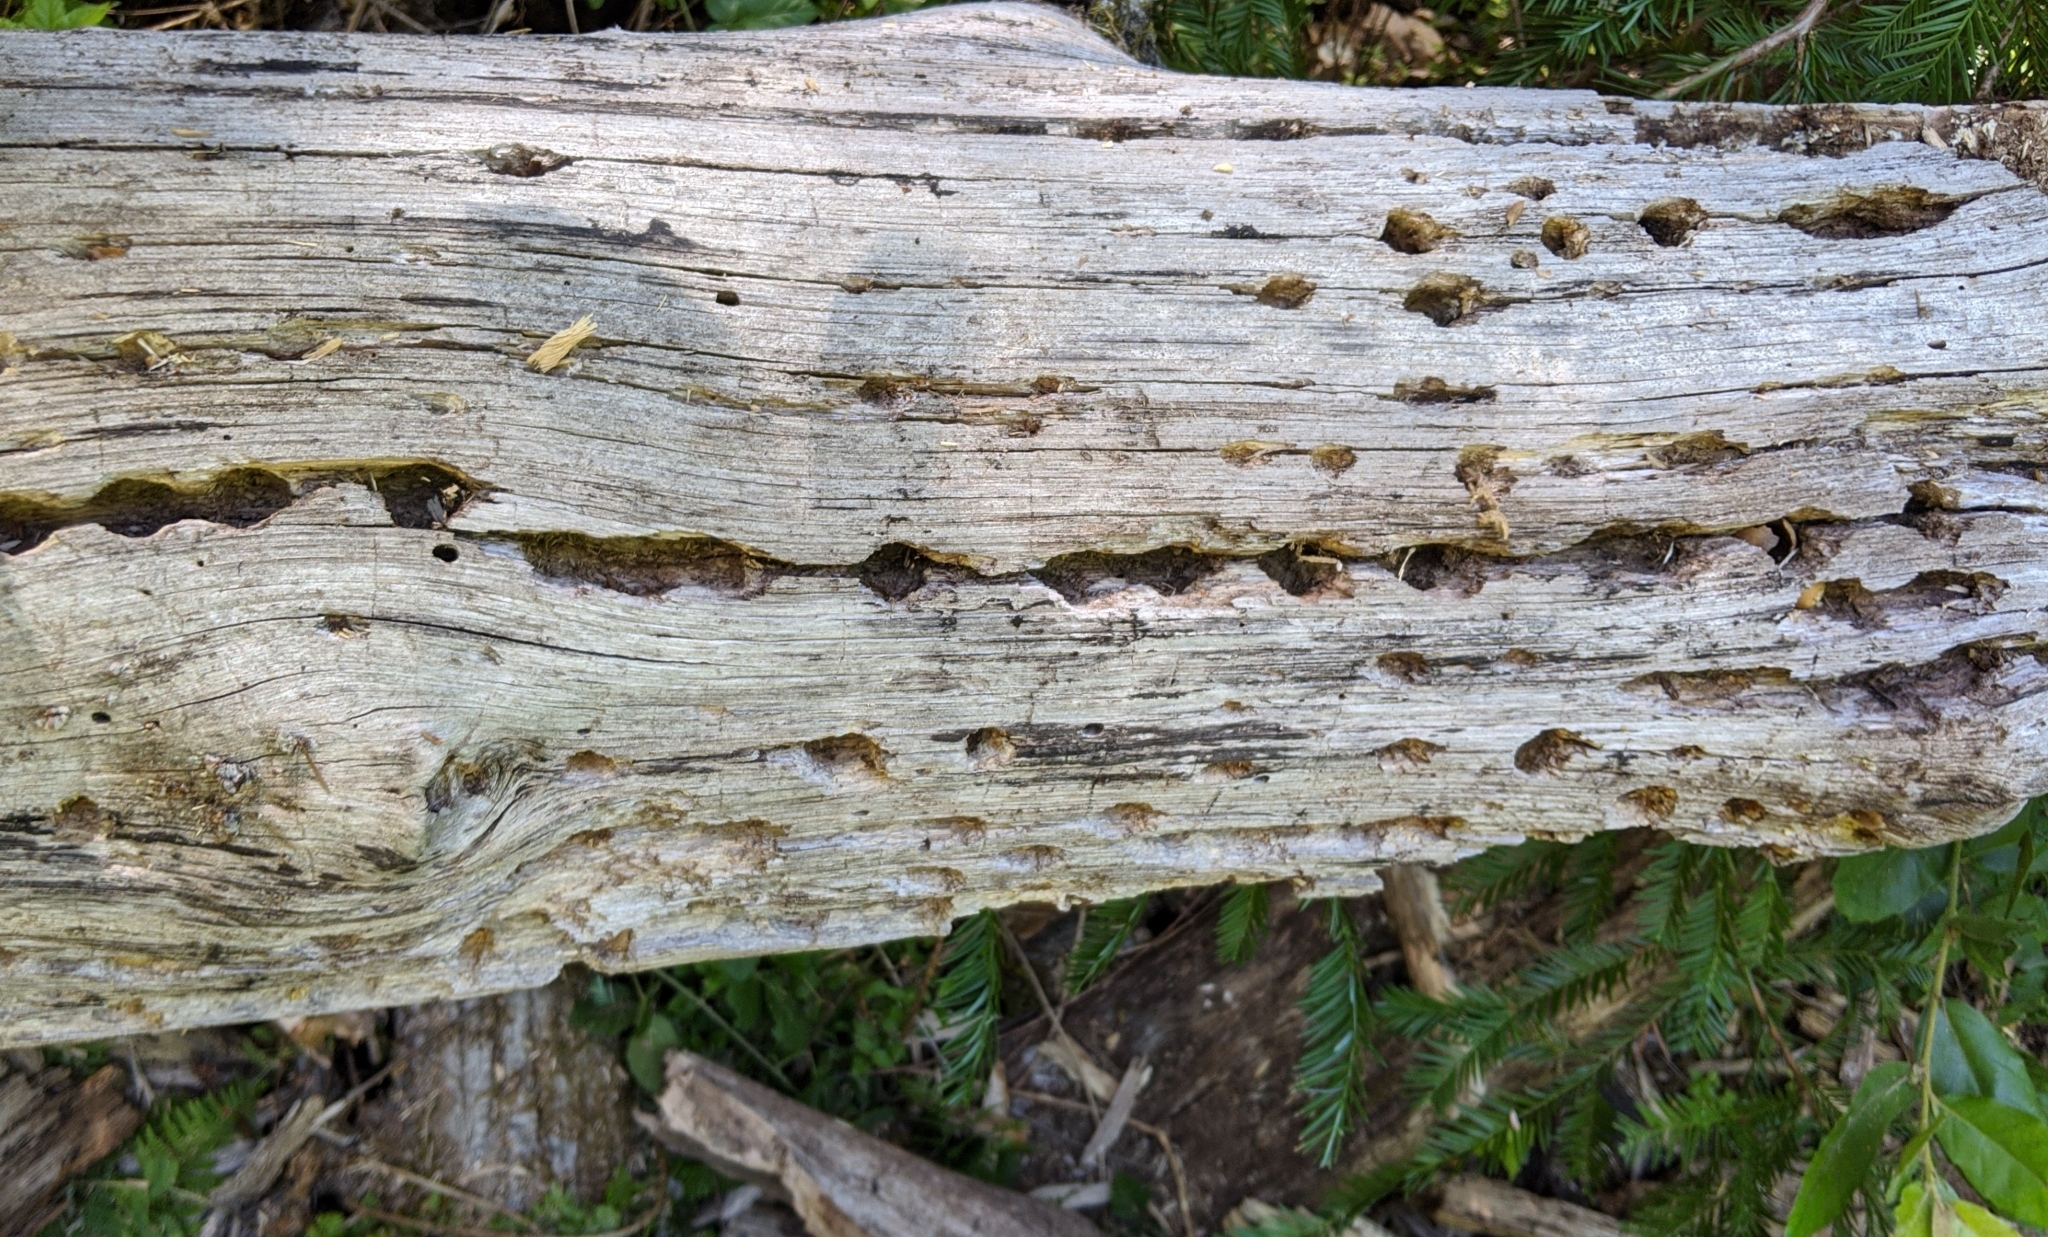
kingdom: Animalia
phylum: Chordata
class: Aves
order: Piciformes
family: Picidae
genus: Melanerpes
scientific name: Melanerpes formicivorus
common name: Acorn woodpecker
